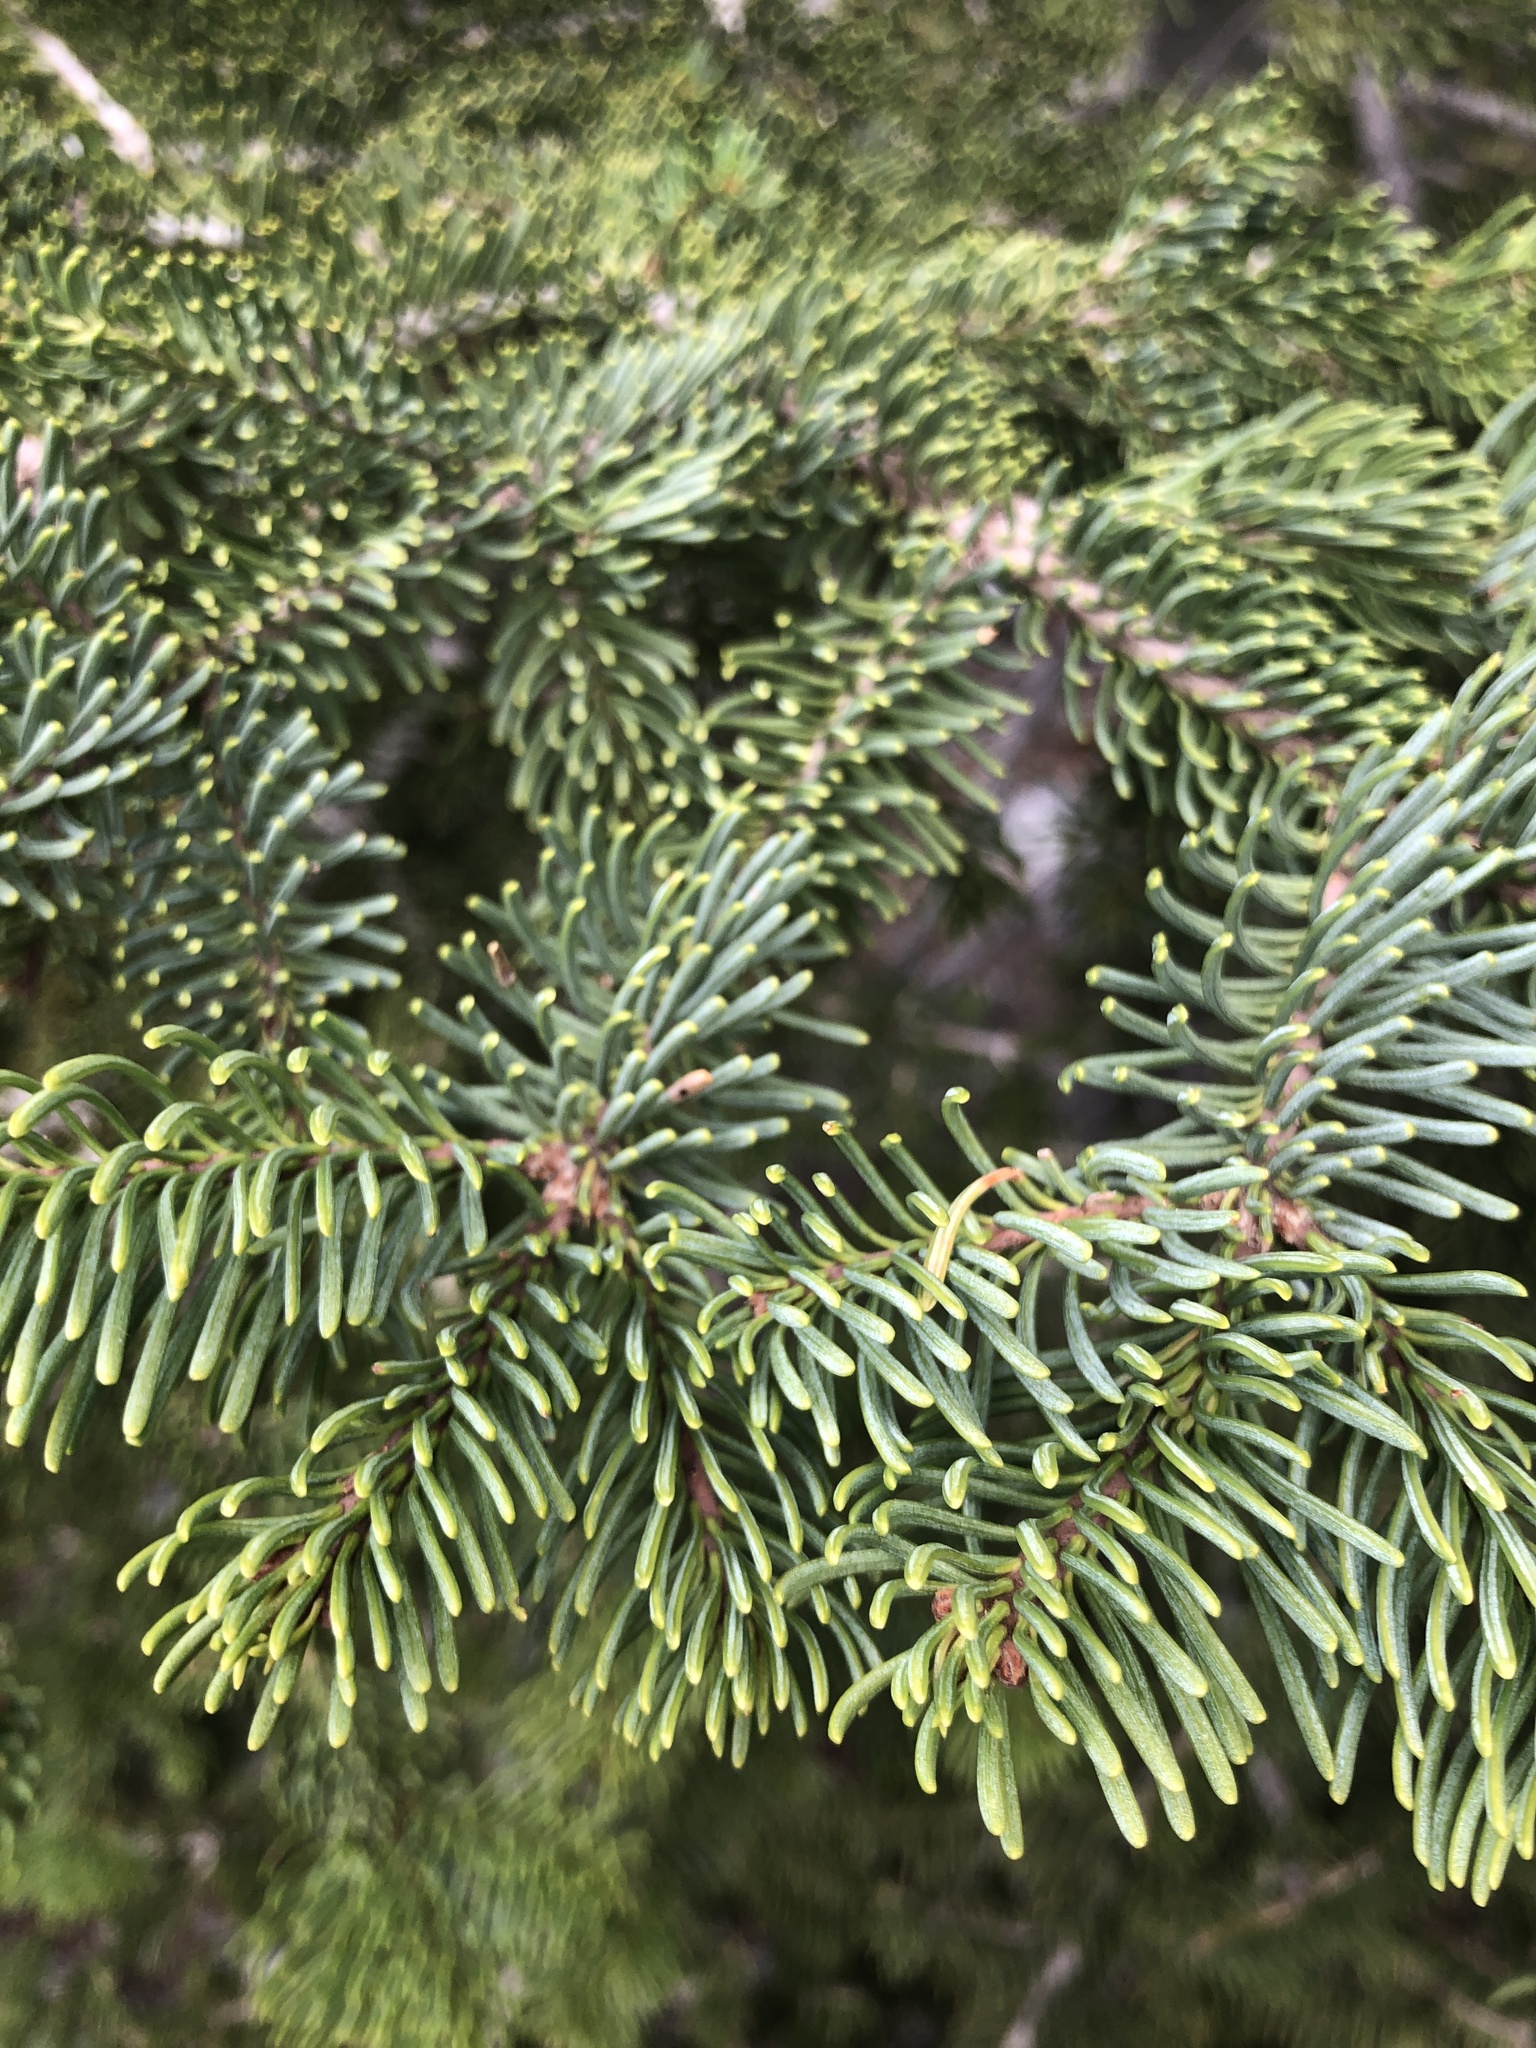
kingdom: Plantae
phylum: Tracheophyta
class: Pinopsida
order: Pinales
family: Pinaceae
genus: Abies
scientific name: Abies magnifica bis
